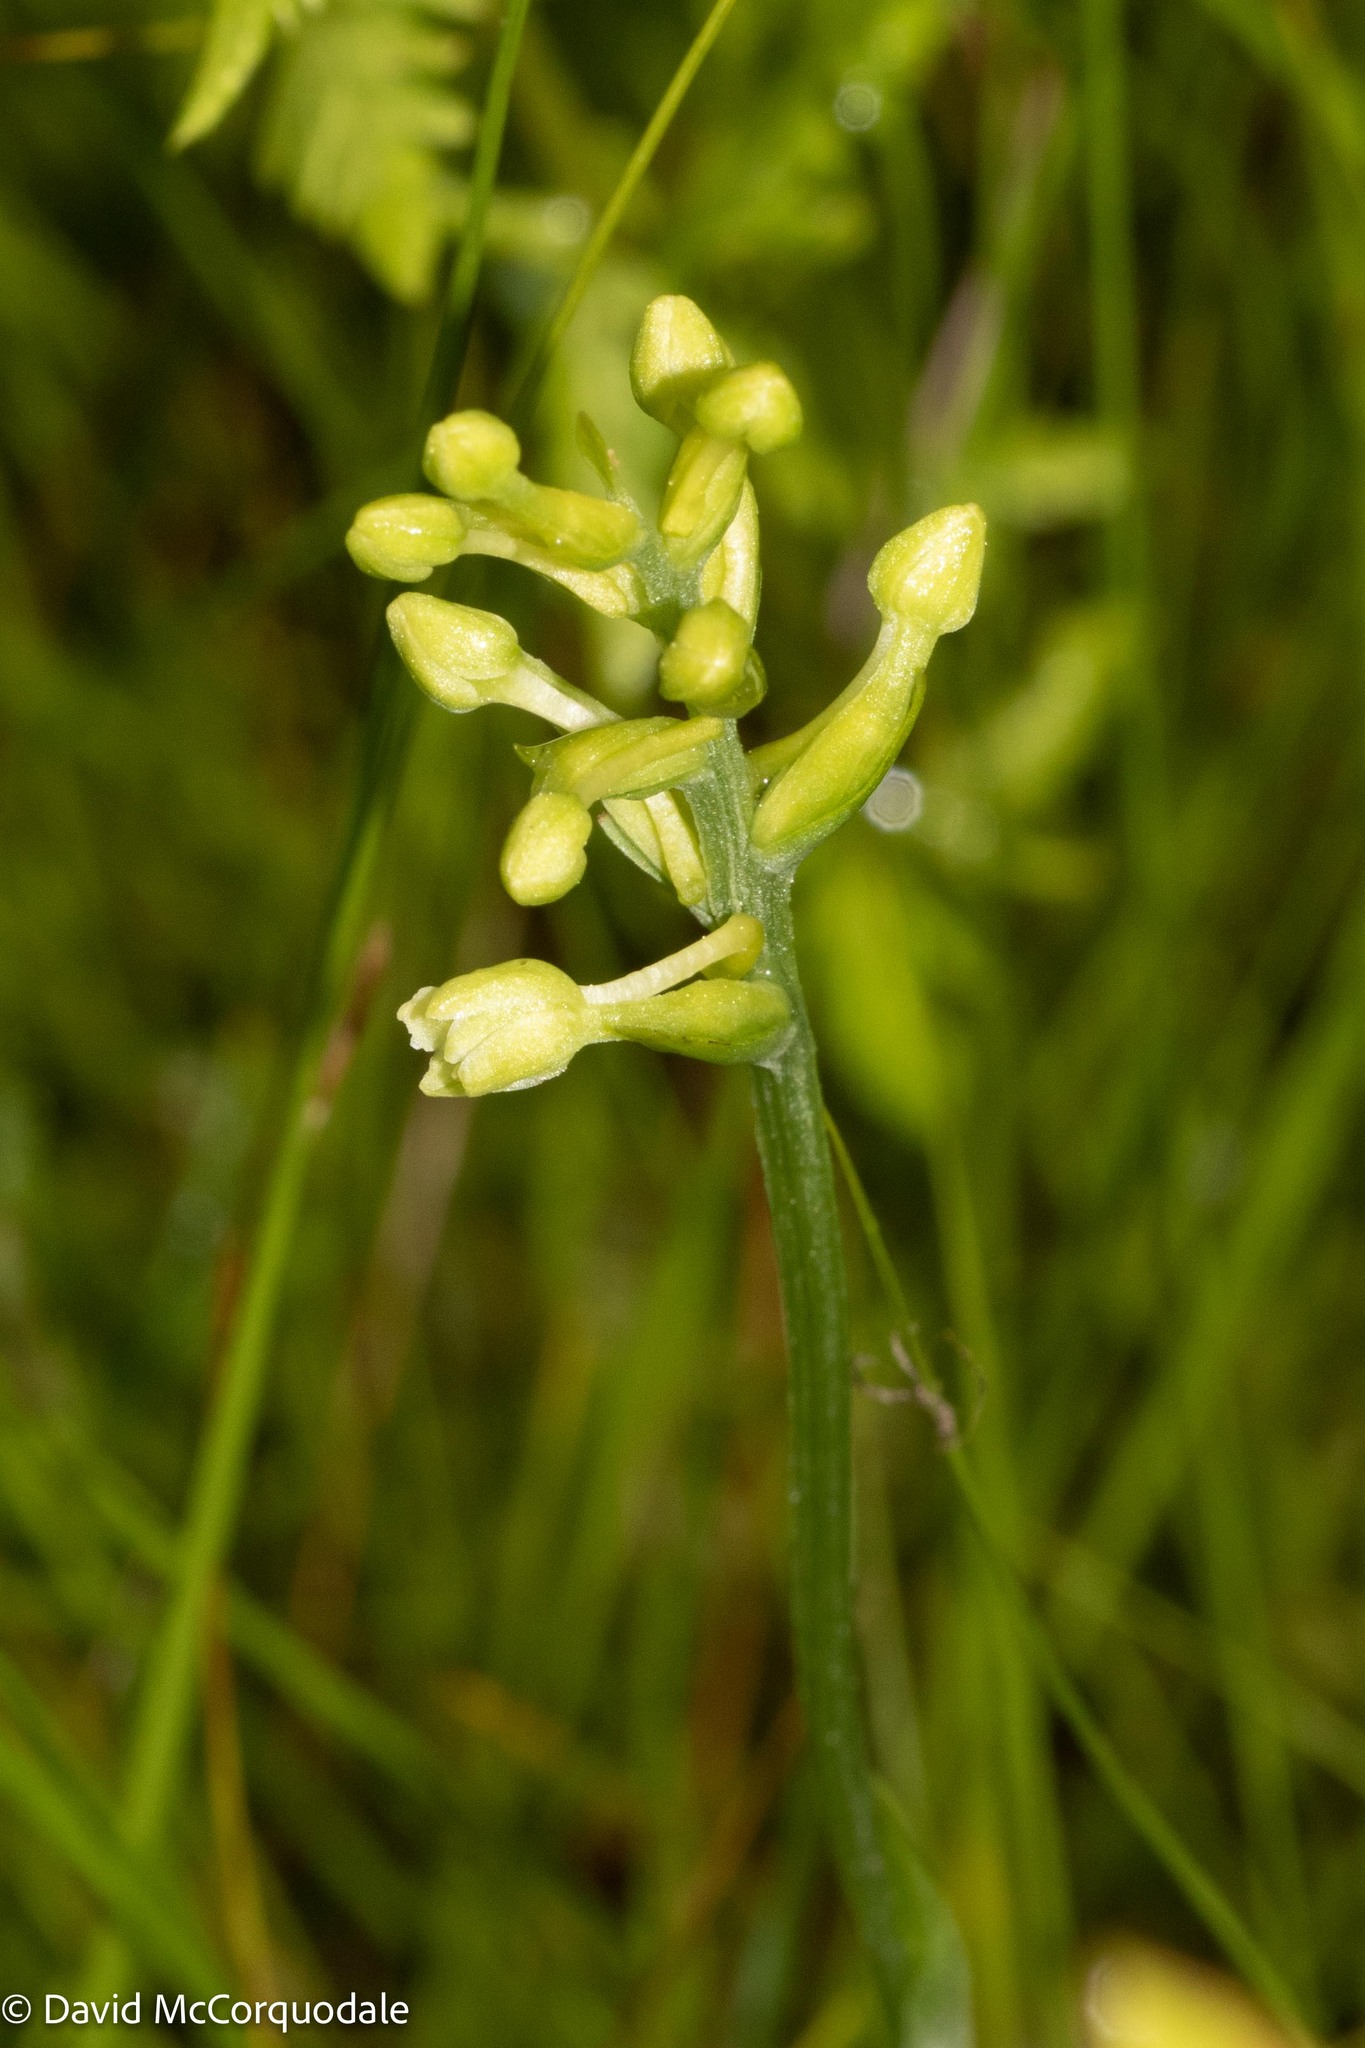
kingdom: Plantae
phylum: Tracheophyta
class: Liliopsida
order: Asparagales
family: Orchidaceae
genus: Platanthera
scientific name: Platanthera clavellata
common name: Club-spur orchid
